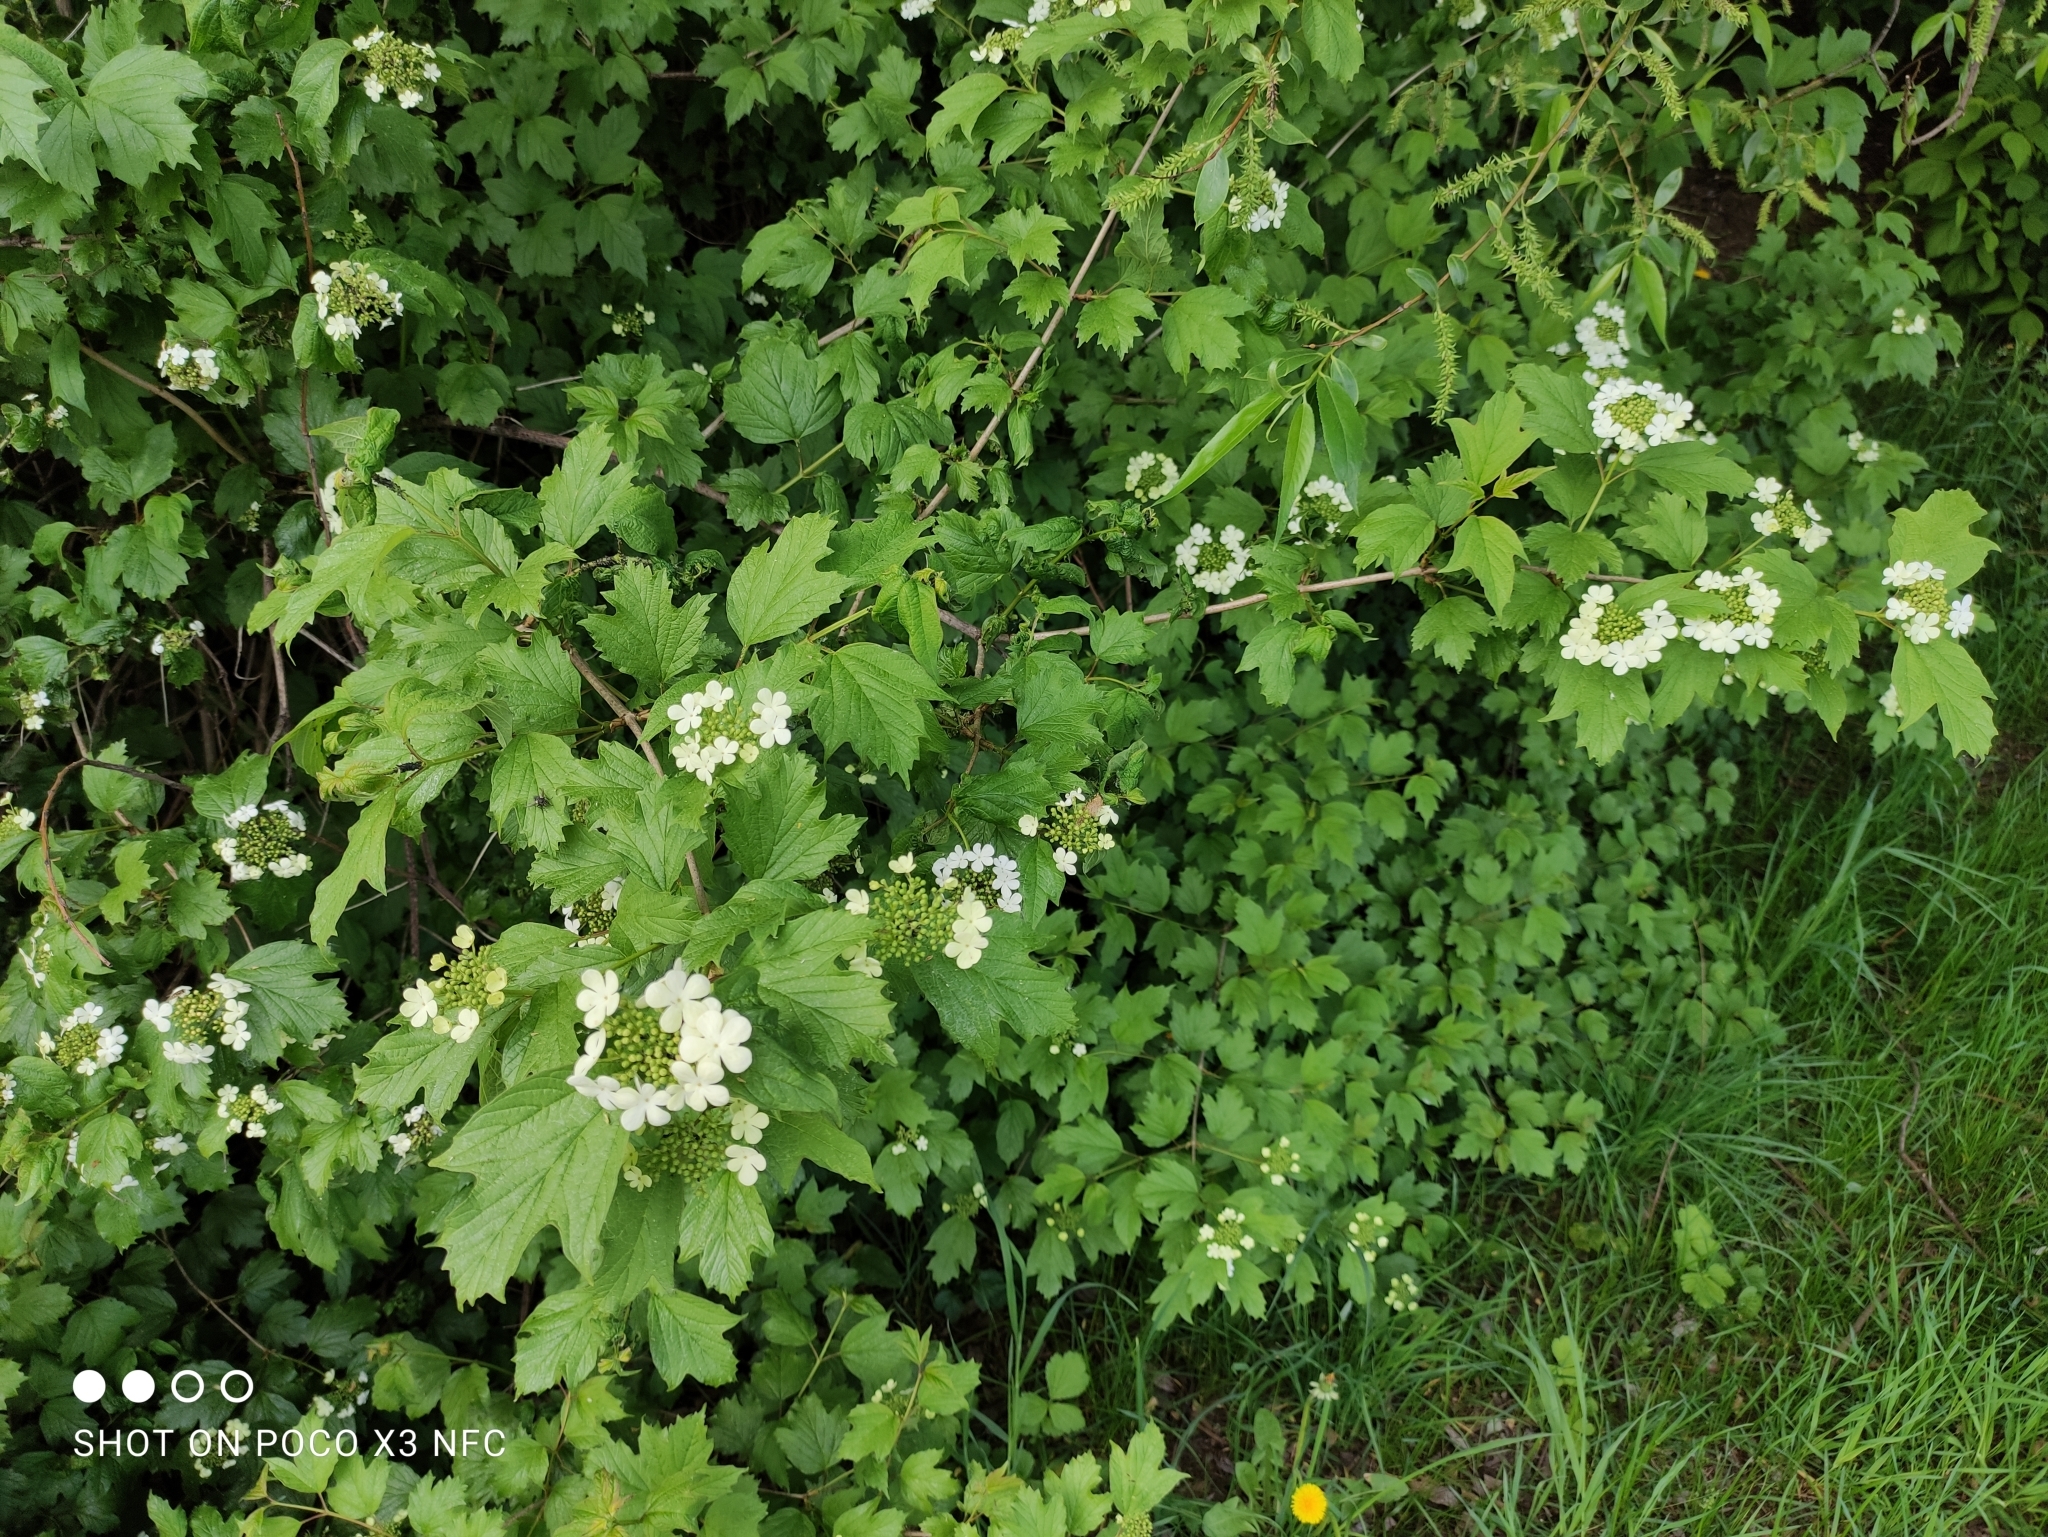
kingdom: Plantae
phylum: Tracheophyta
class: Magnoliopsida
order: Dipsacales
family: Viburnaceae
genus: Viburnum
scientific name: Viburnum opulus
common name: Guelder-rose
